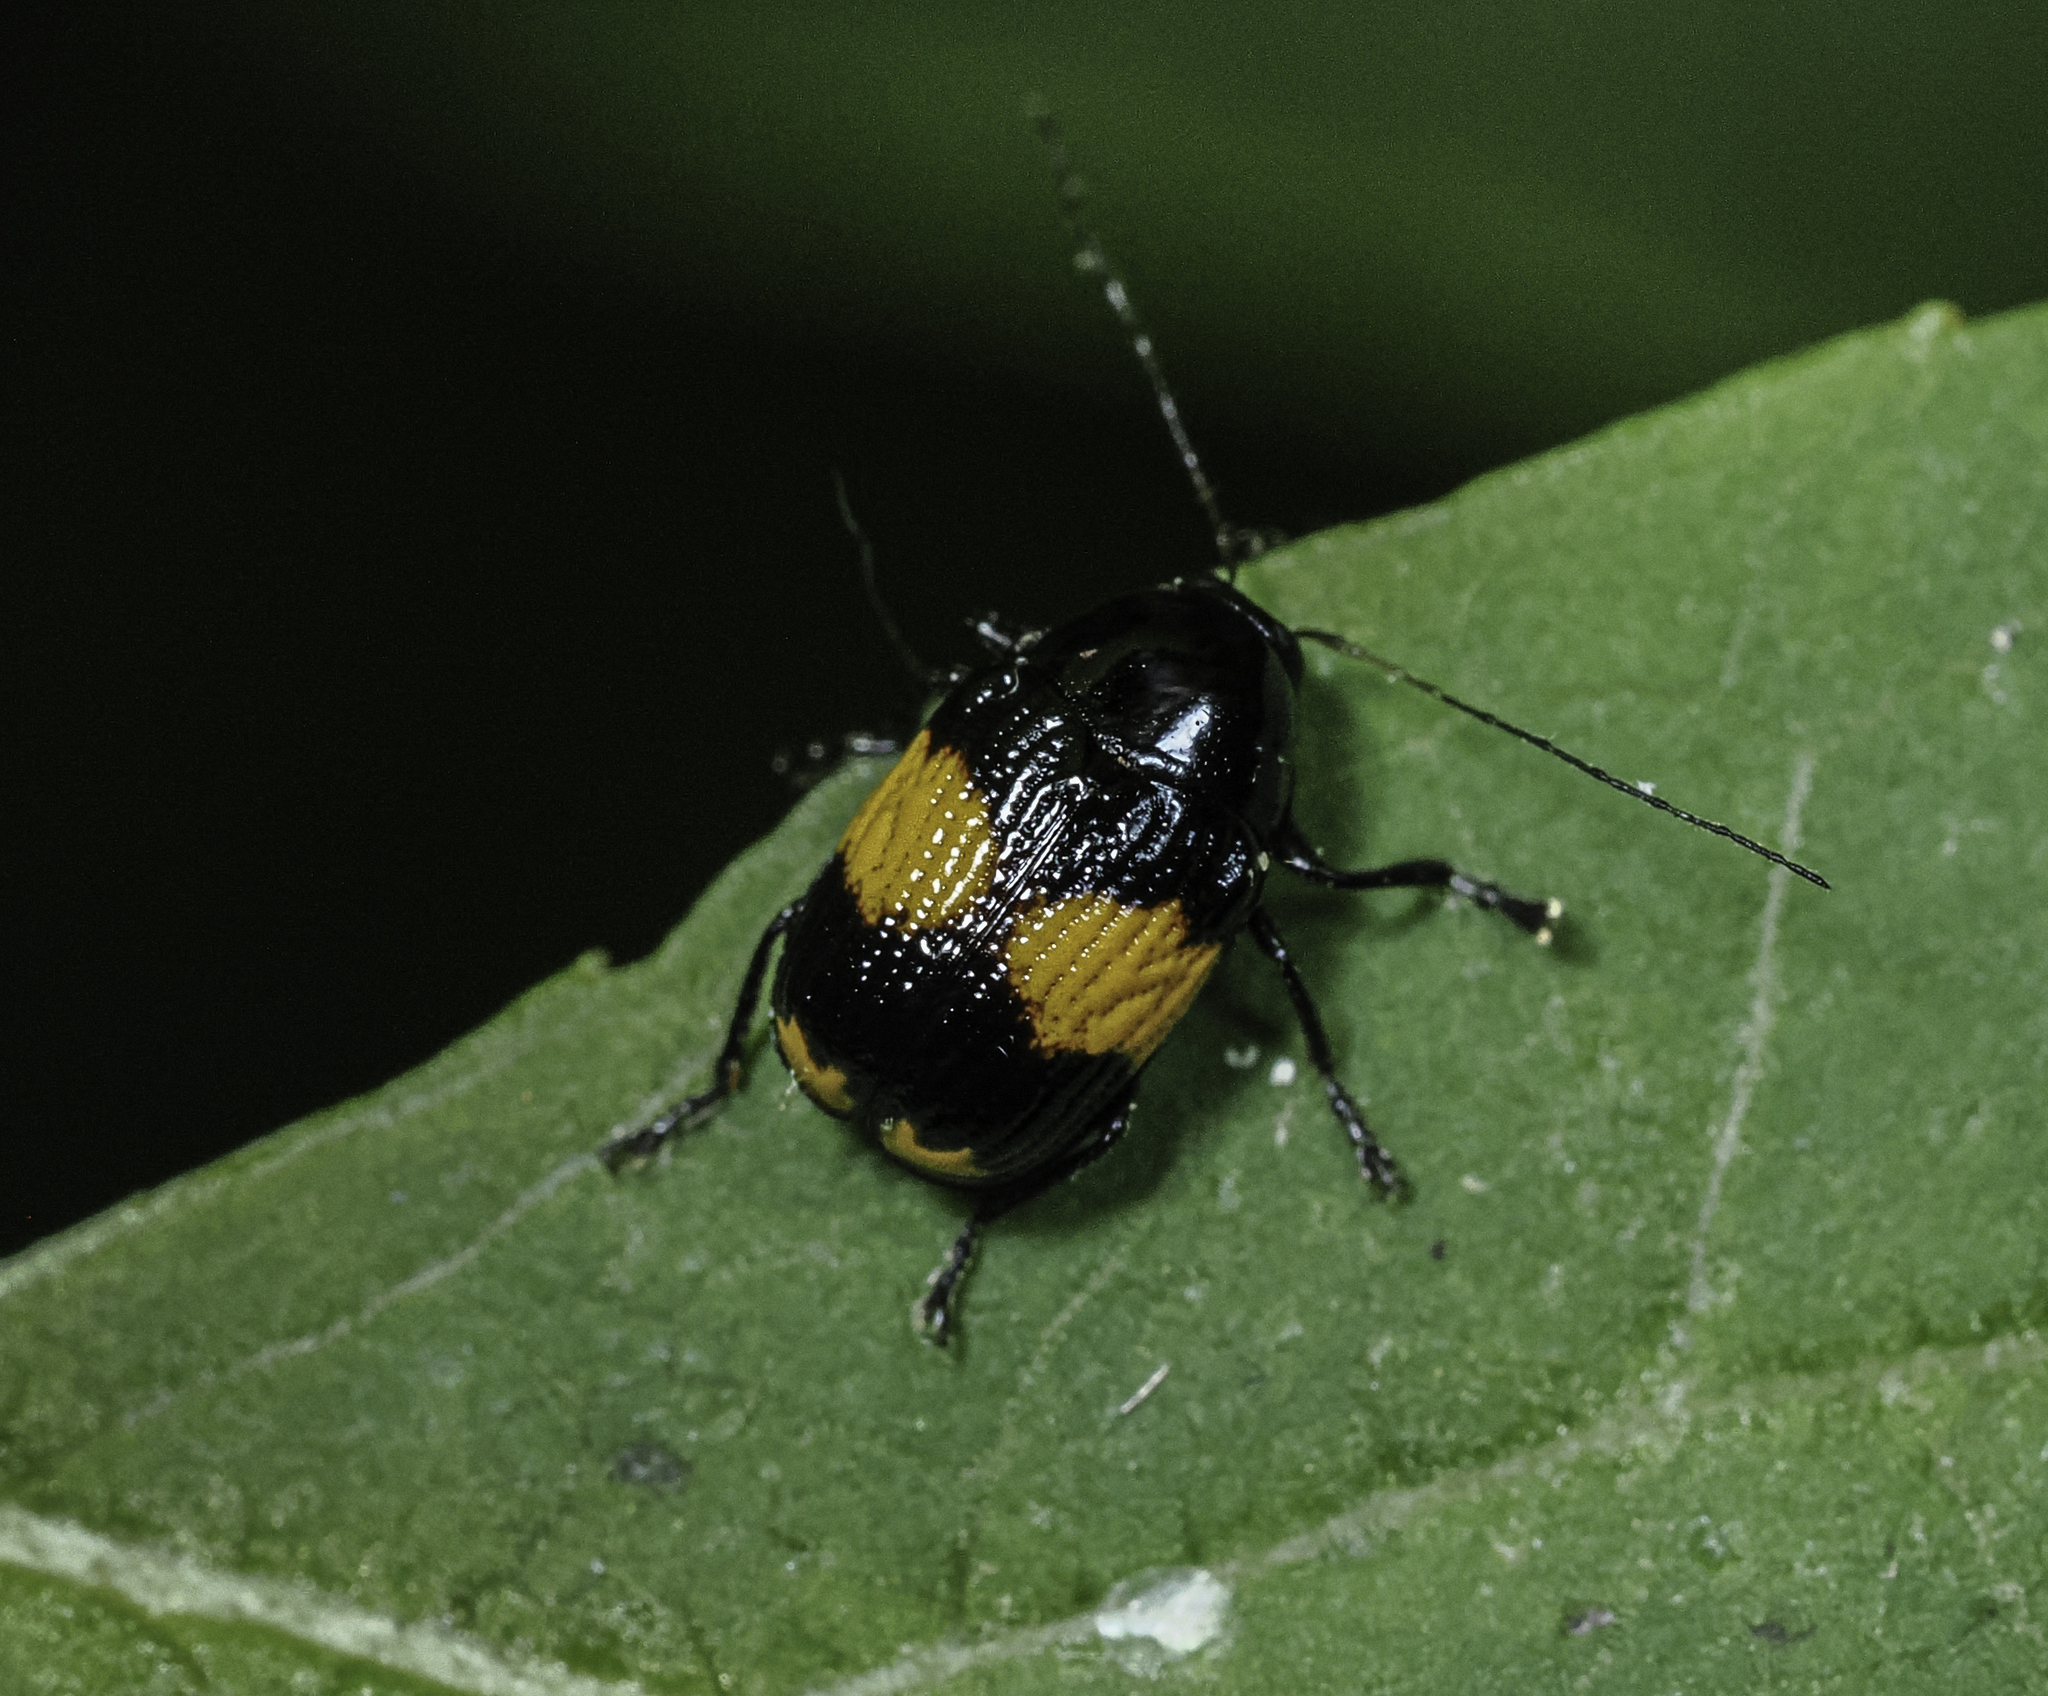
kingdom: Animalia
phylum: Arthropoda
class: Insecta
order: Coleoptera
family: Chrysomelidae
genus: Bassareus
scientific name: Bassareus mammifer
